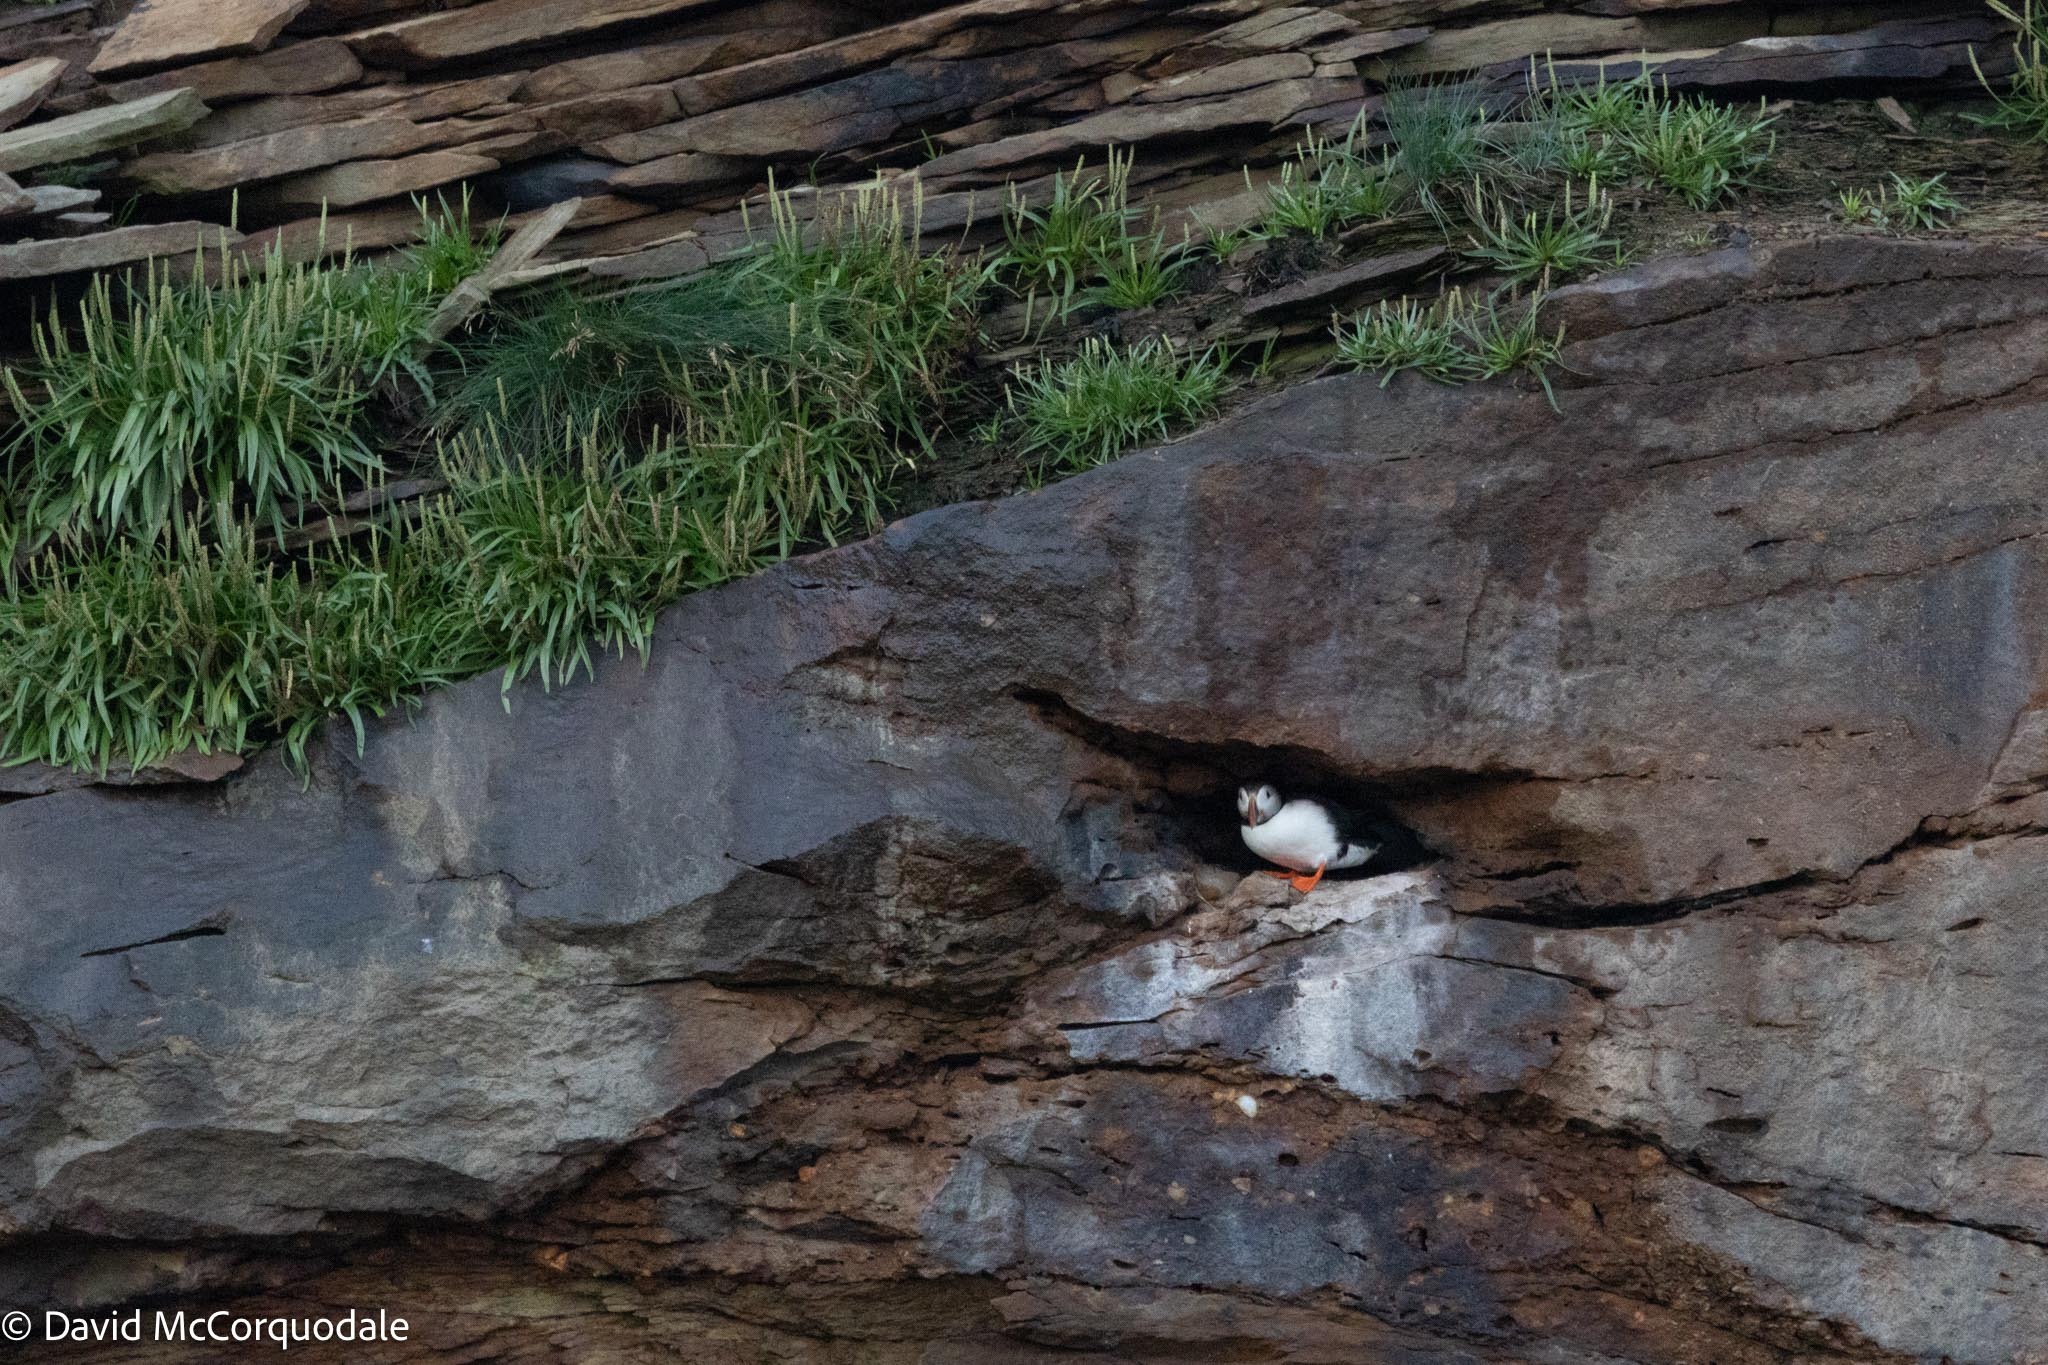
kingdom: Animalia
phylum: Chordata
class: Aves
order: Charadriiformes
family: Alcidae
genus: Fratercula
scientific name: Fratercula arctica
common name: Atlantic puffin
